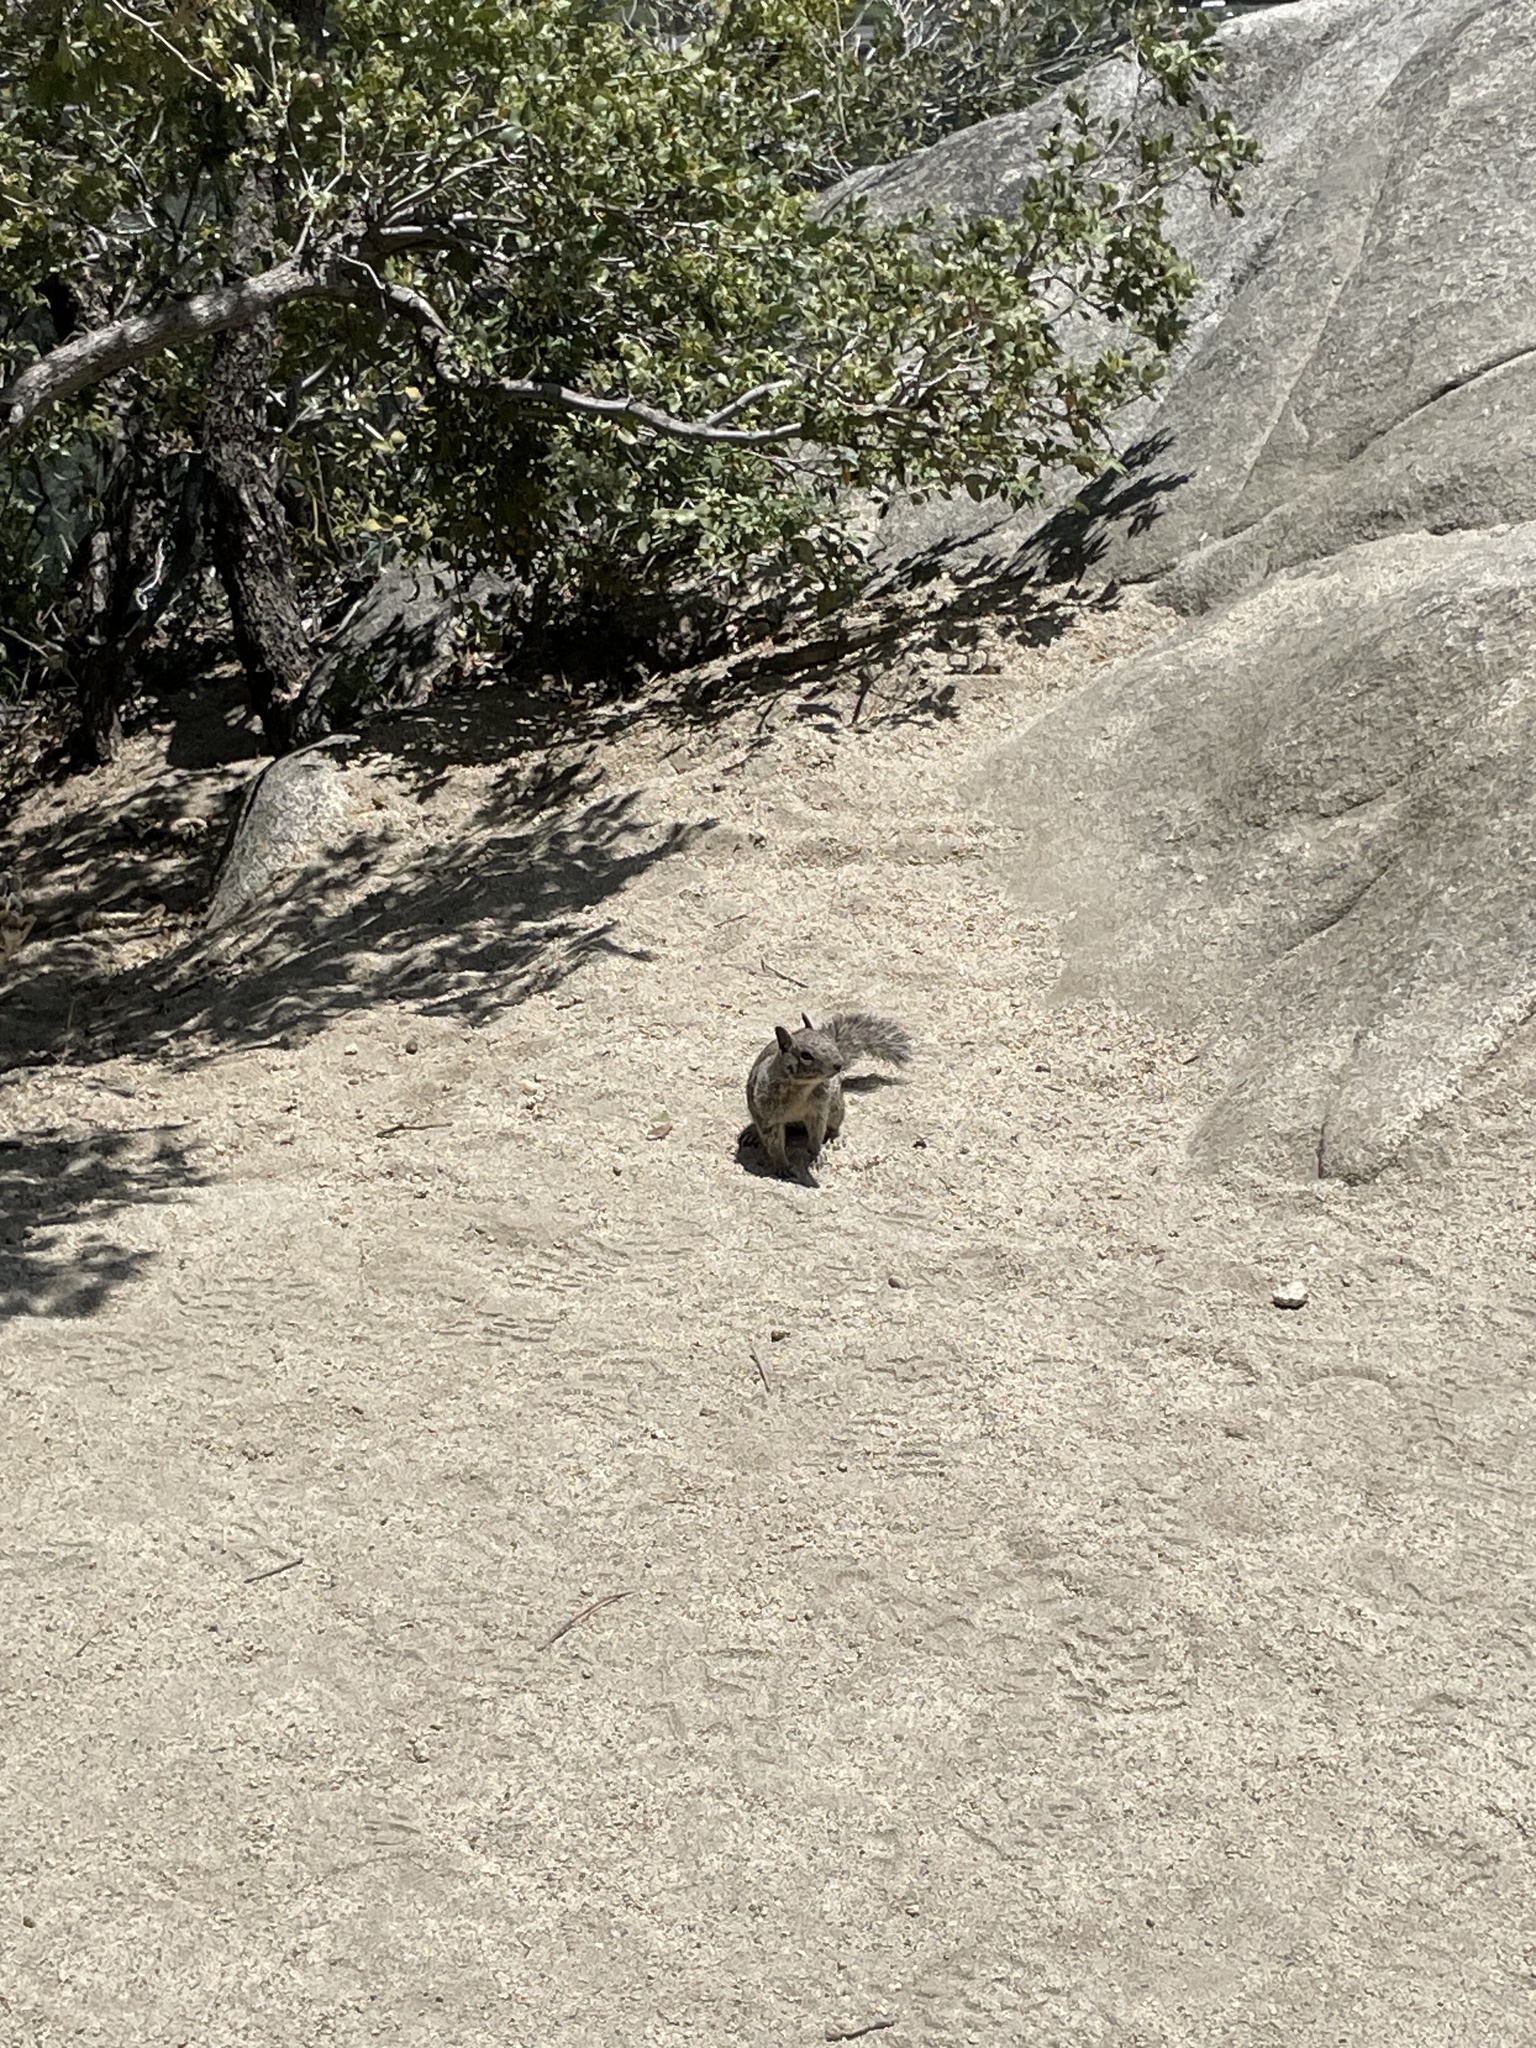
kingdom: Animalia
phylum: Chordata
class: Mammalia
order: Rodentia
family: Sciuridae
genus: Otospermophilus
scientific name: Otospermophilus beecheyi
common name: California ground squirrel
